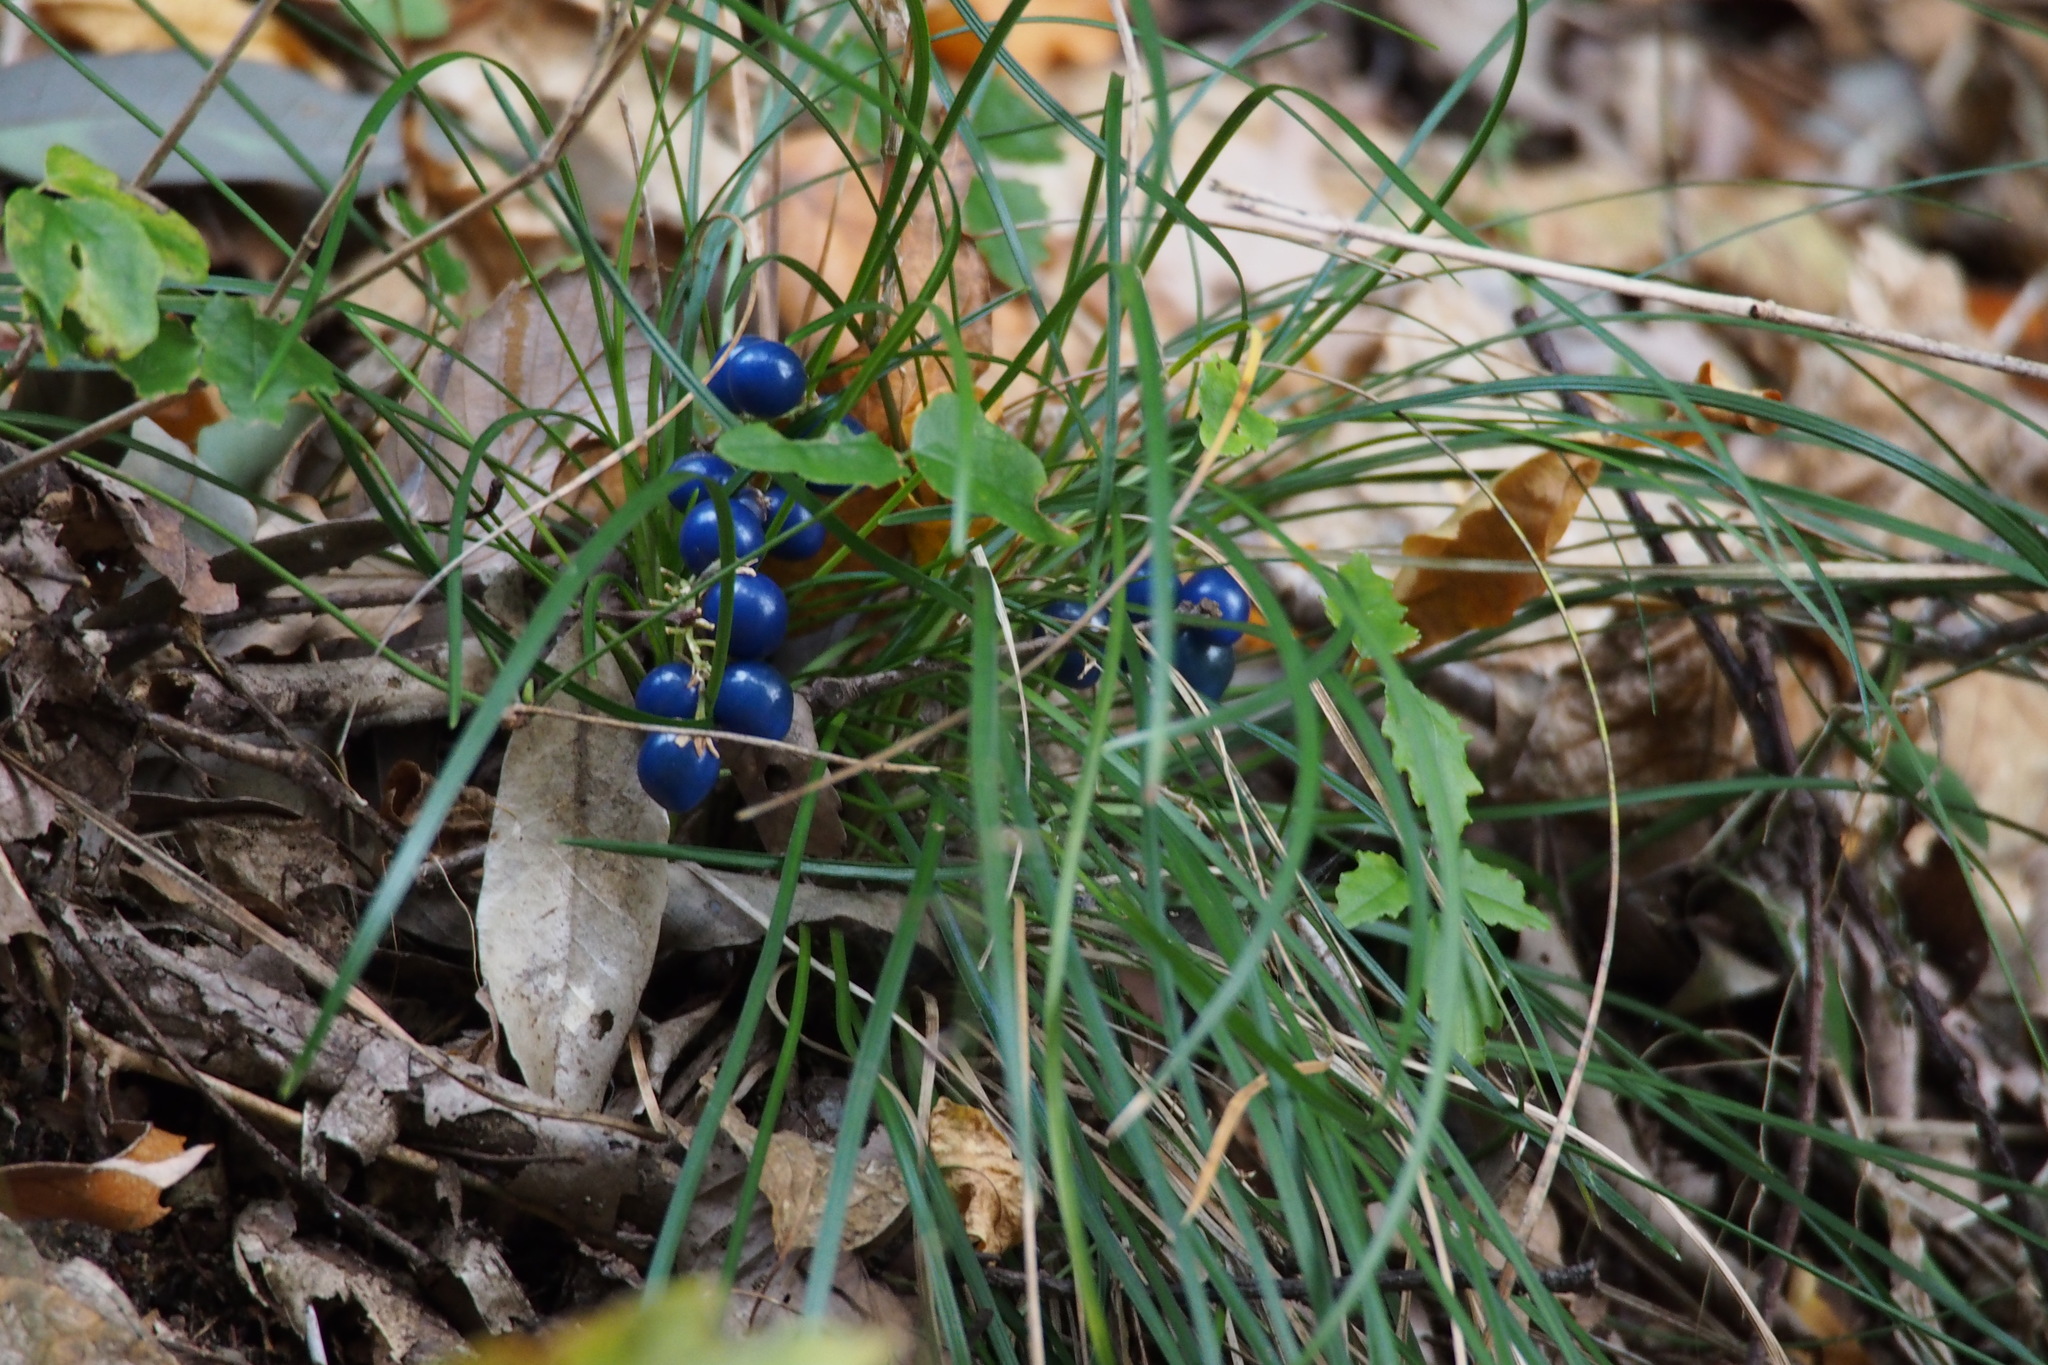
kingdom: Plantae
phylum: Tracheophyta
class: Liliopsida
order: Asparagales
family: Asparagaceae
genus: Ophiopogon
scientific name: Ophiopogon japonicus
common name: Dwarf lilyturf
